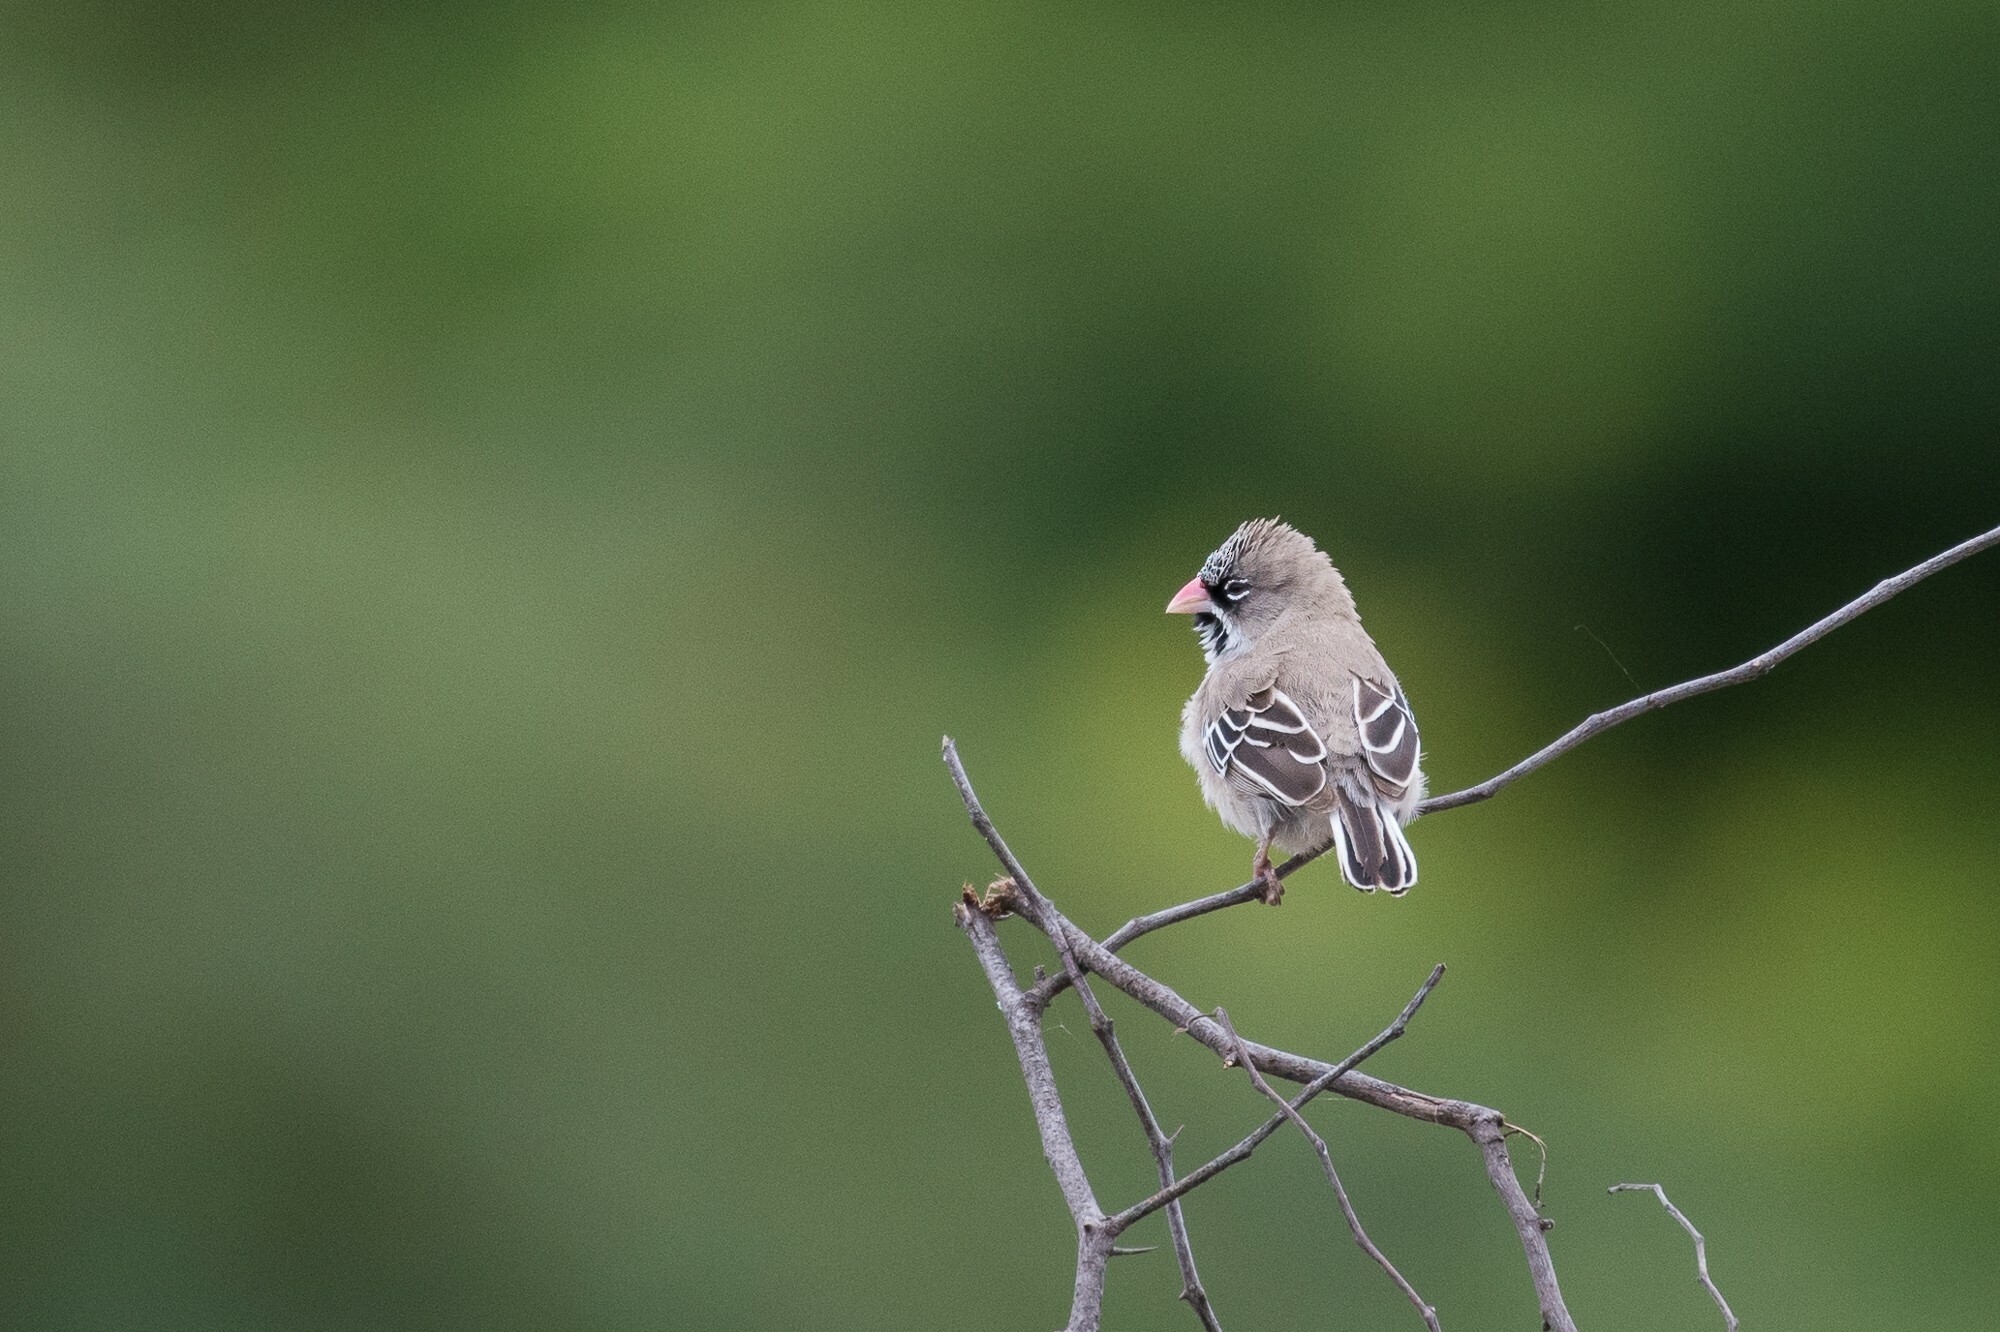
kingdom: Animalia
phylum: Chordata
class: Aves
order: Passeriformes
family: Ploceidae
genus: Sporopipes
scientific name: Sporopipes squamifrons
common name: Scaly-feathered weaver
